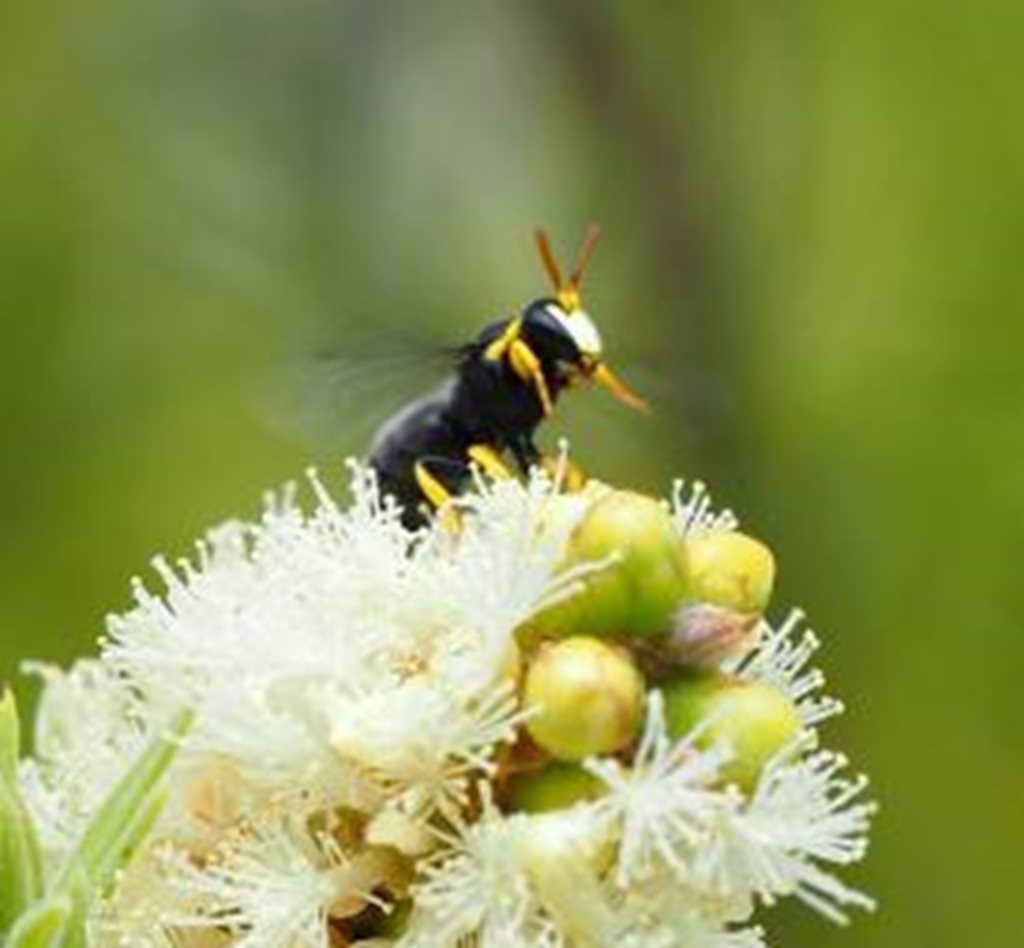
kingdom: Animalia
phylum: Arthropoda
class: Insecta
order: Hymenoptera
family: Colletidae
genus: Hylaeus
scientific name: Hylaeus euxanthus
